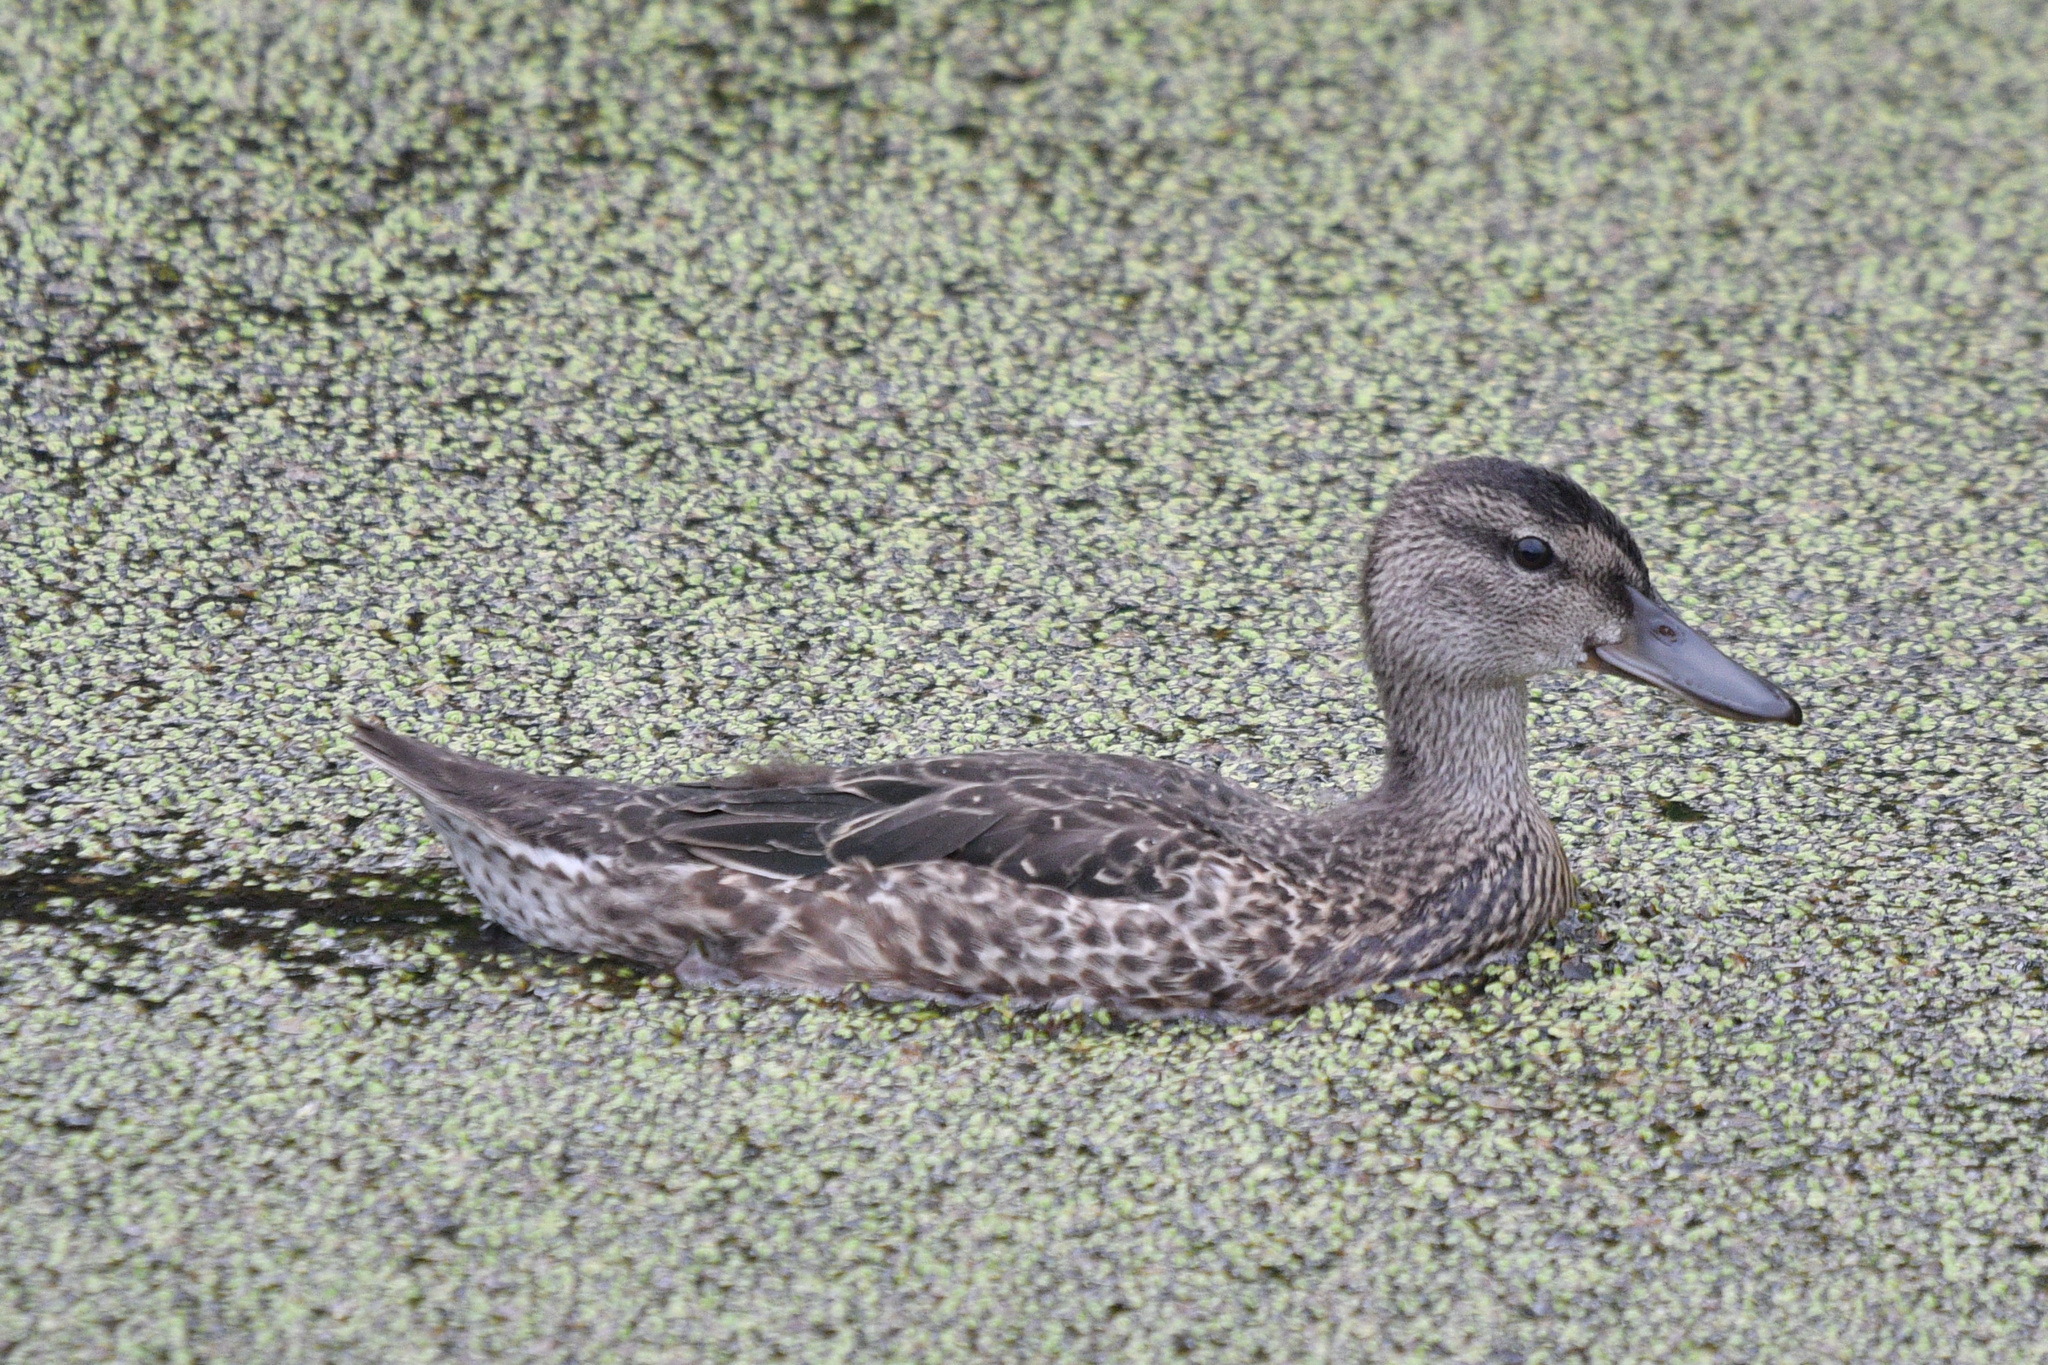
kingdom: Animalia
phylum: Chordata
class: Aves
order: Anseriformes
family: Anatidae
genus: Spatula
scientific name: Spatula discors
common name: Blue-winged teal
